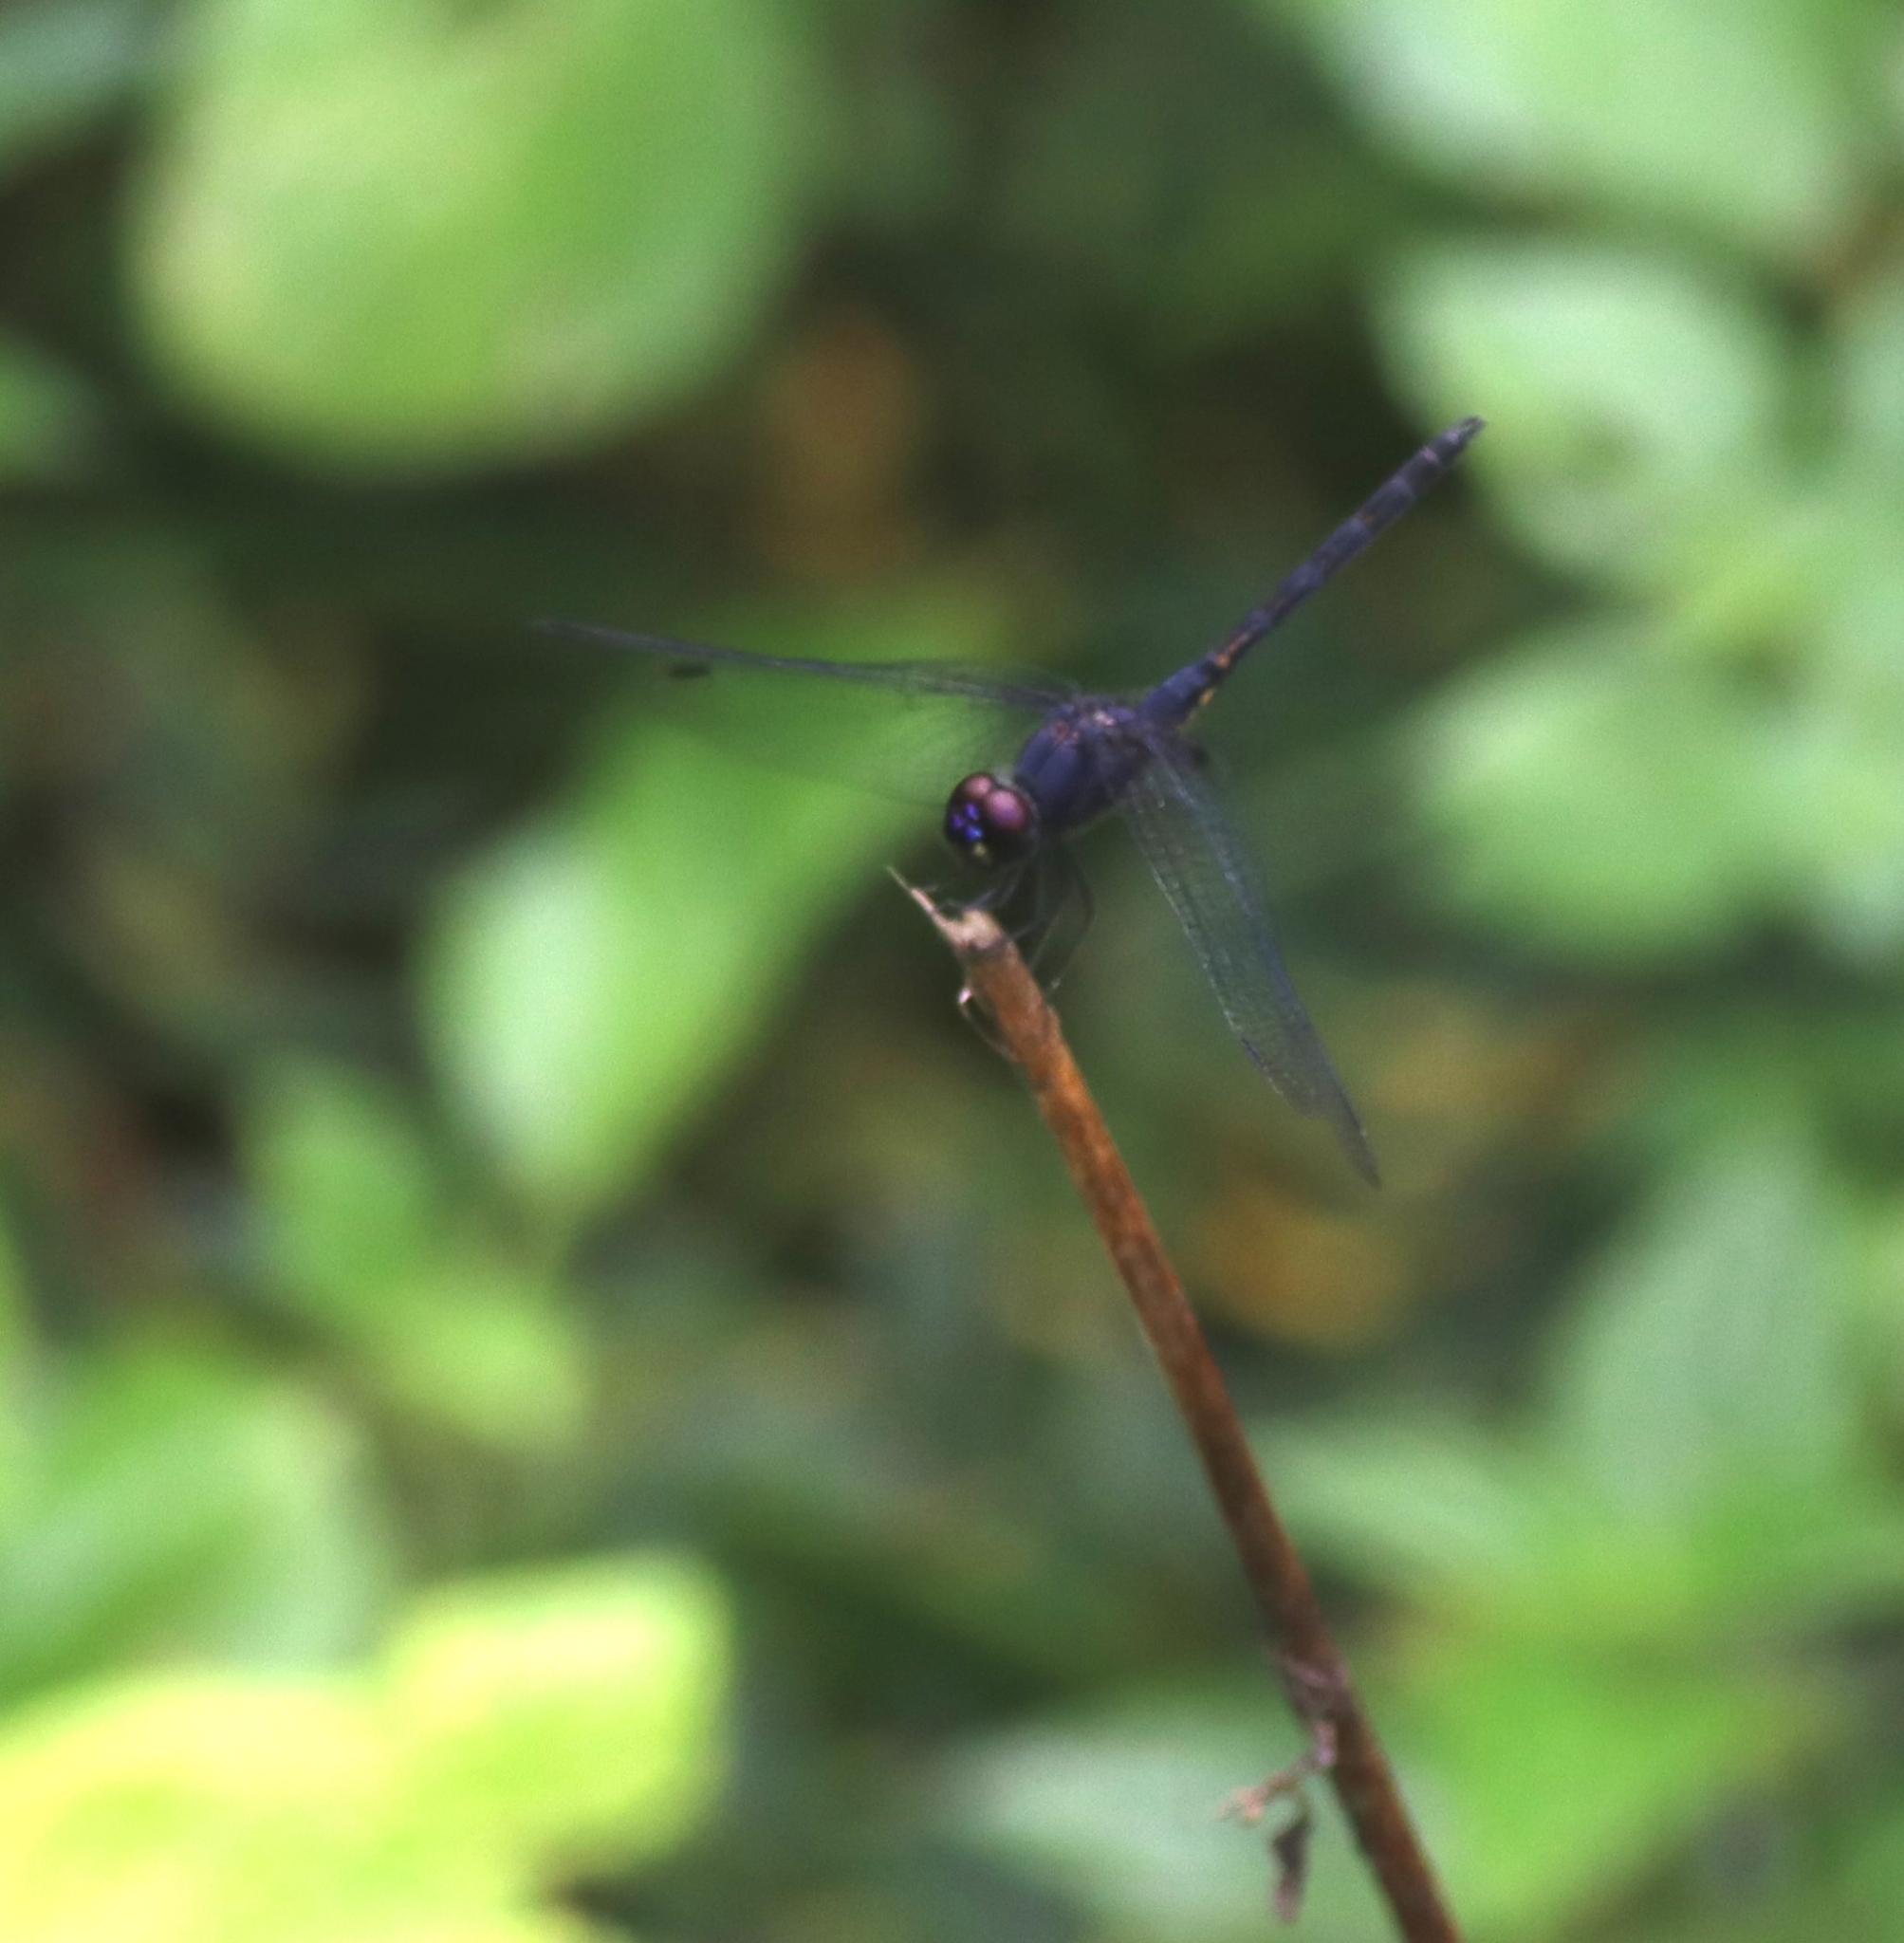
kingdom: Animalia
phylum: Arthropoda
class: Insecta
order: Odonata
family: Libellulidae
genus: Trithemis
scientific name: Trithemis festiva
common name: Indigo dropwing
